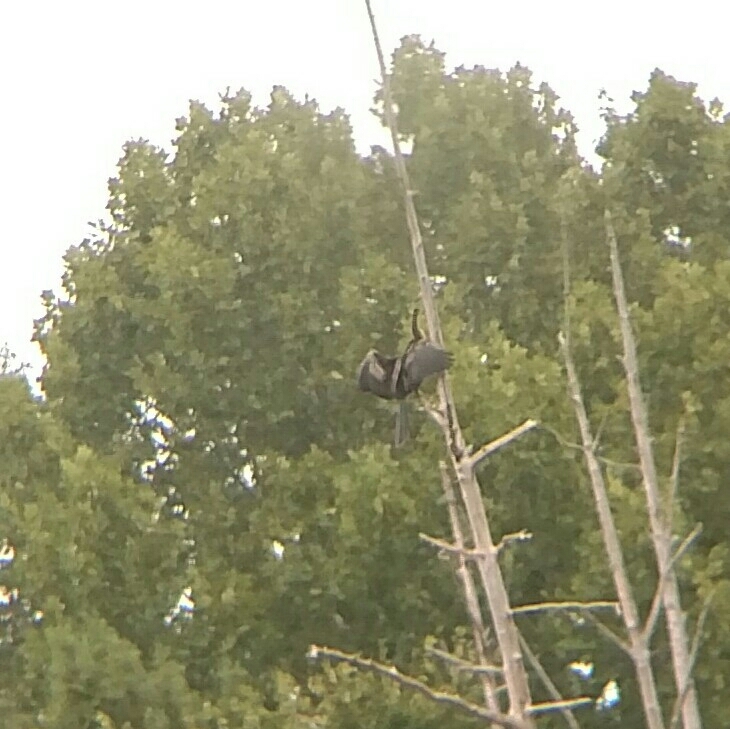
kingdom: Animalia
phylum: Chordata
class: Aves
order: Suliformes
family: Anhingidae
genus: Anhinga
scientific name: Anhinga anhinga
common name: Anhinga
